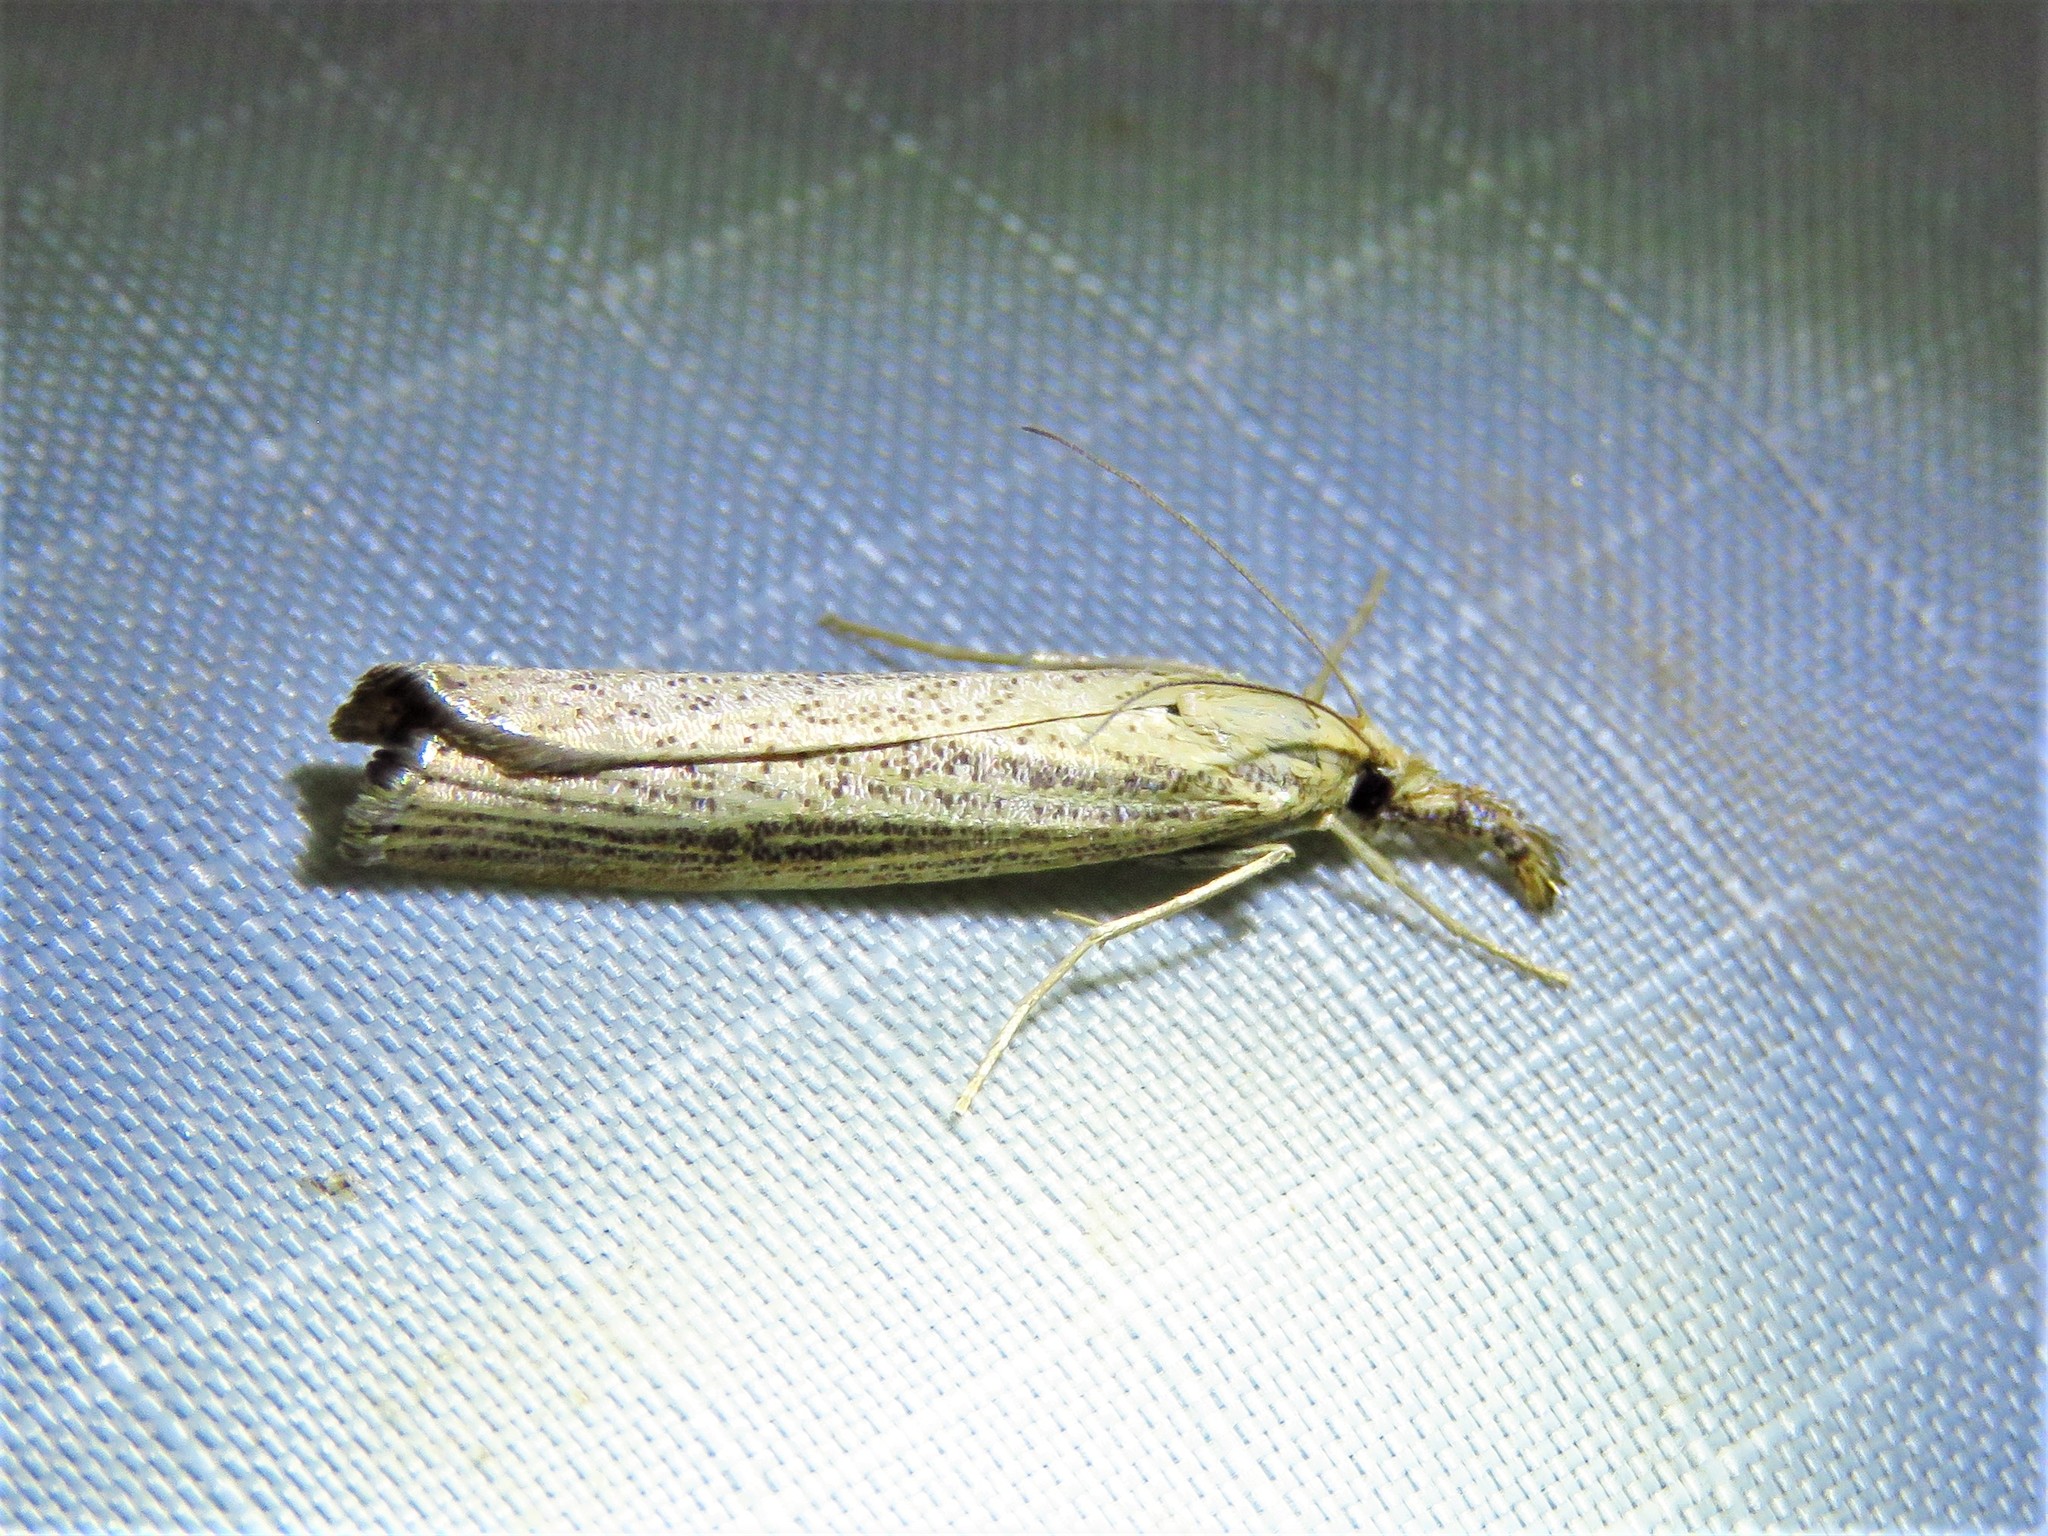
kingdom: Animalia
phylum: Arthropoda
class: Insecta
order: Lepidoptera
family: Crambidae
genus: Agriphila
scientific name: Agriphila vulgivagellus
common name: Vagabond crambus moth
